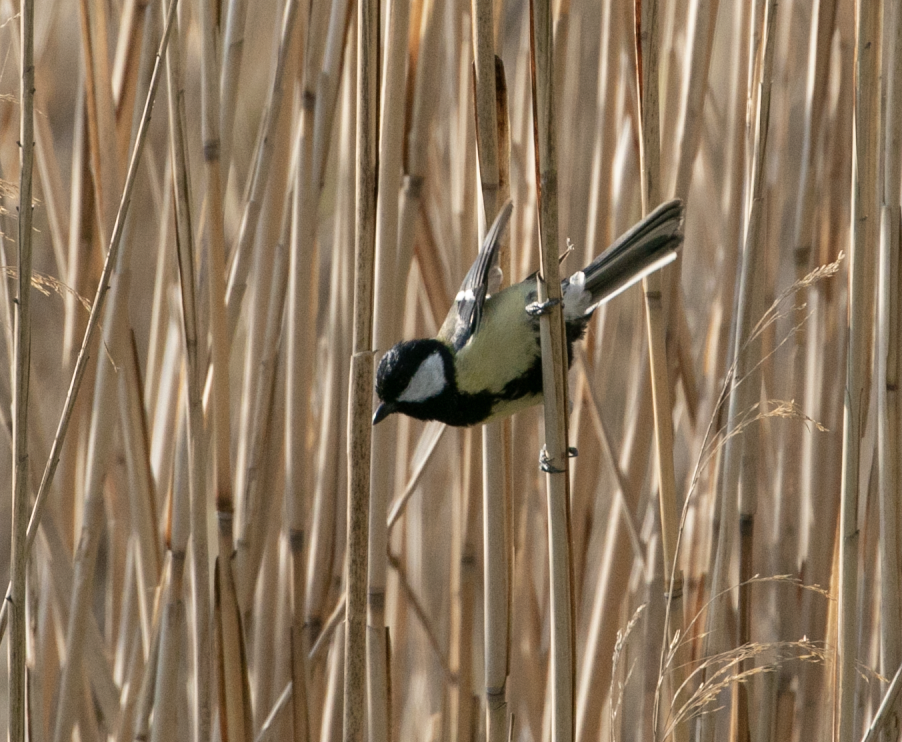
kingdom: Animalia
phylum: Chordata
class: Aves
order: Passeriformes
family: Paridae
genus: Parus
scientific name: Parus major
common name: Great tit
